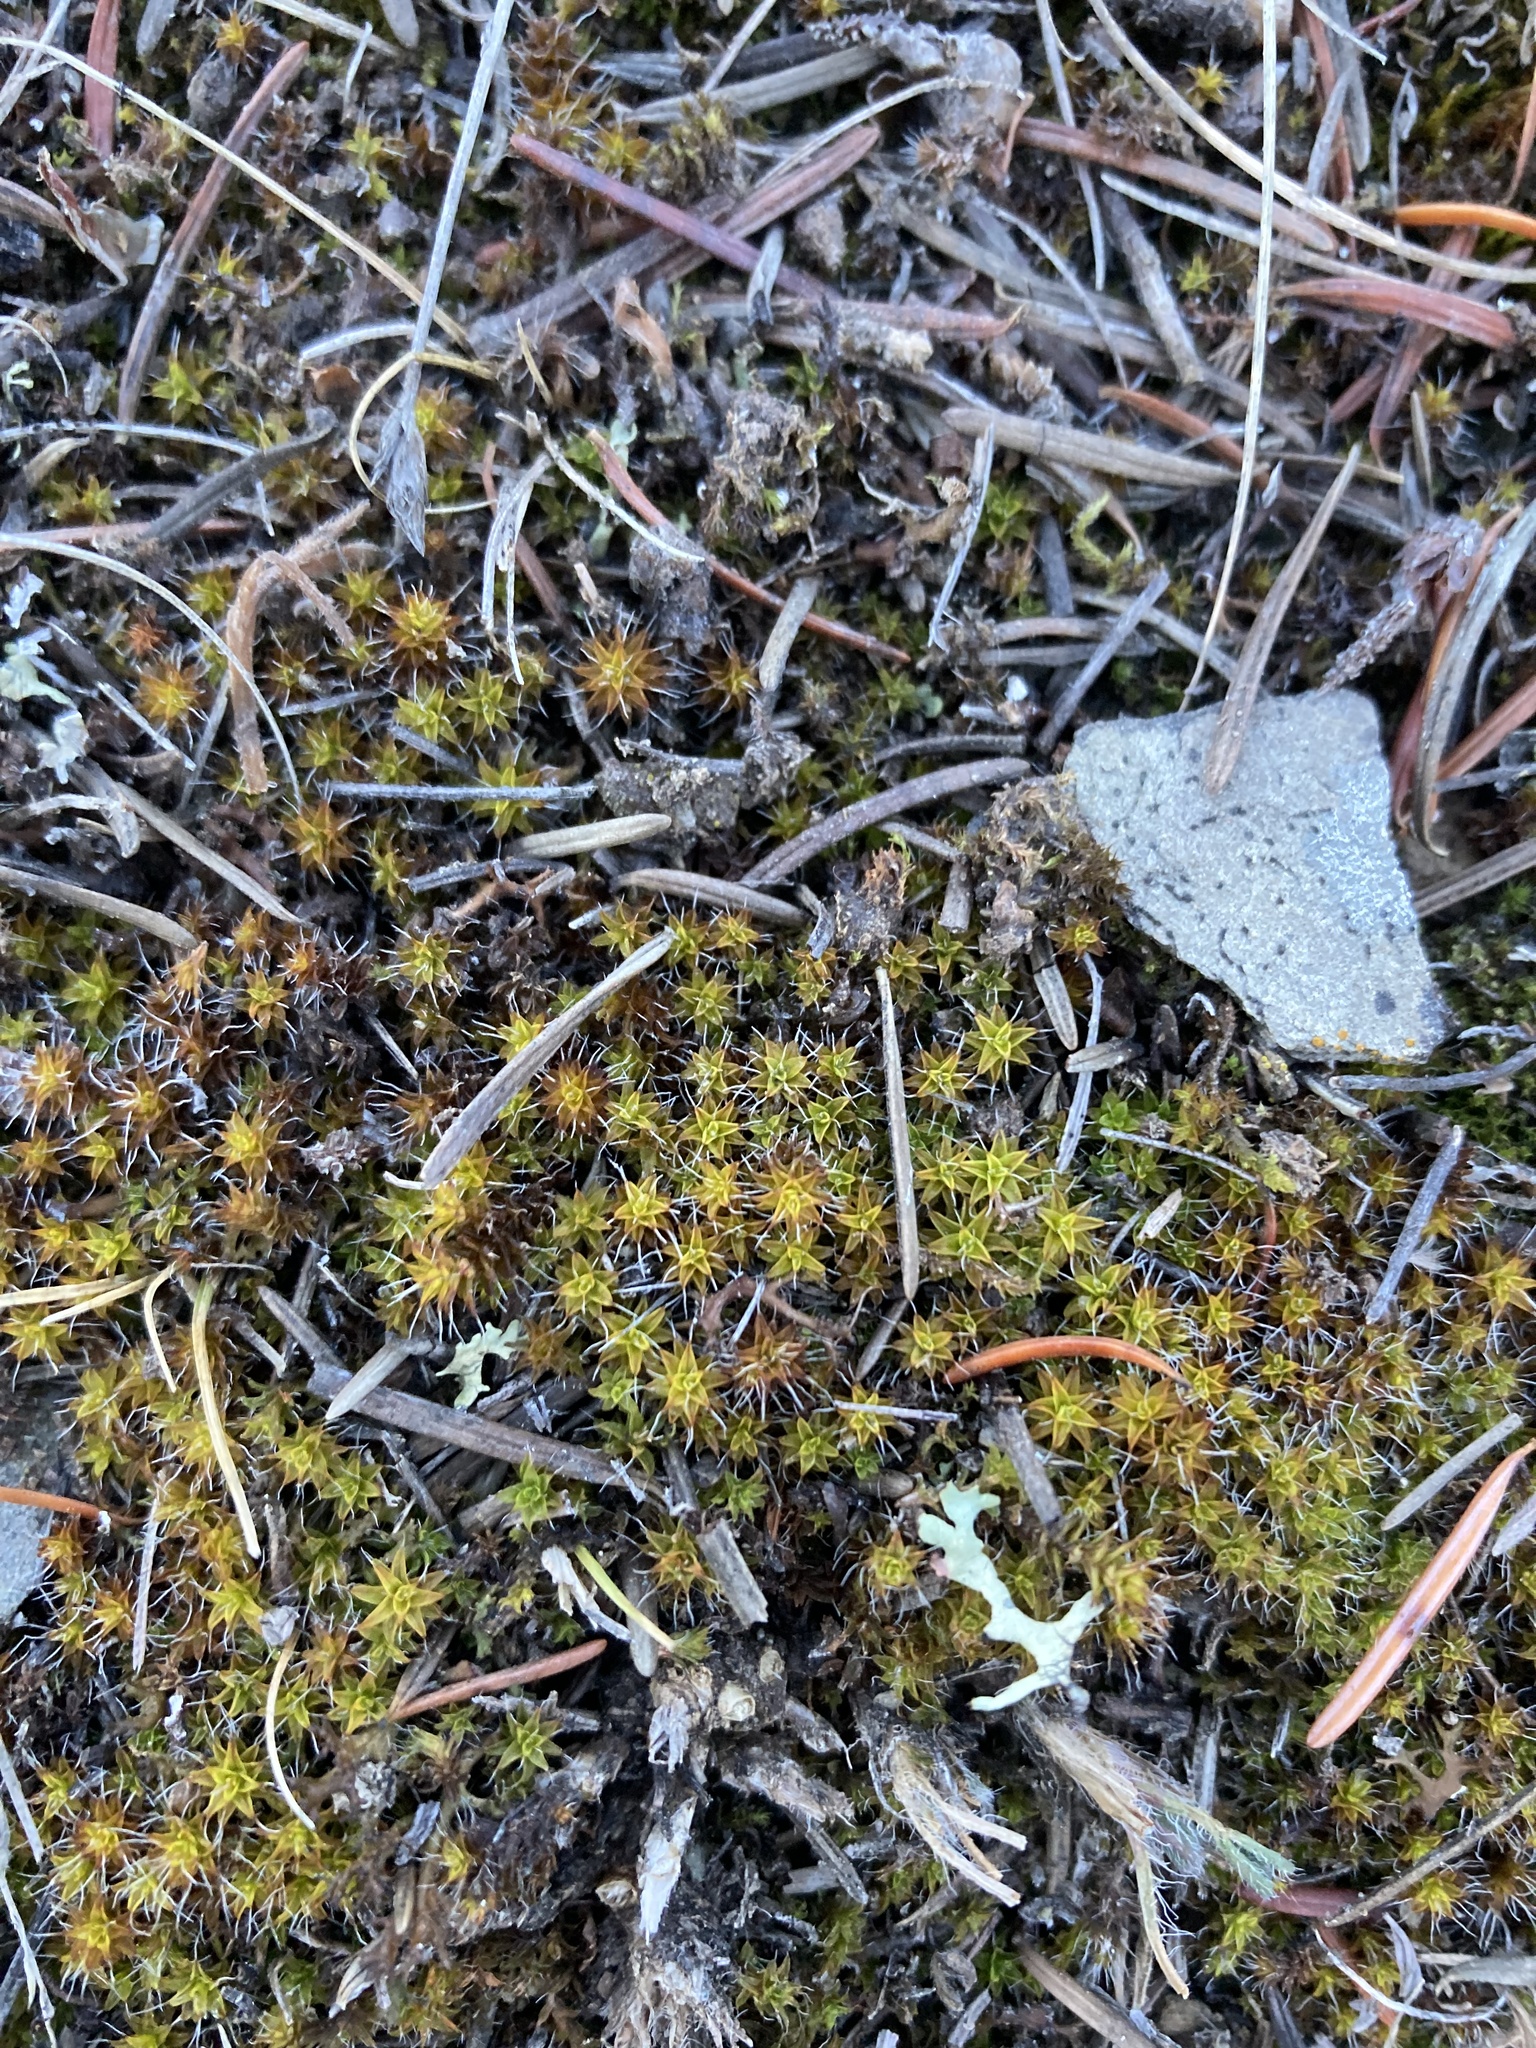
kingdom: Plantae
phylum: Bryophyta
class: Bryopsida
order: Pottiales
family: Pottiaceae
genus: Syntrichia
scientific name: Syntrichia ruralis
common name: Sidewalk screw moss
